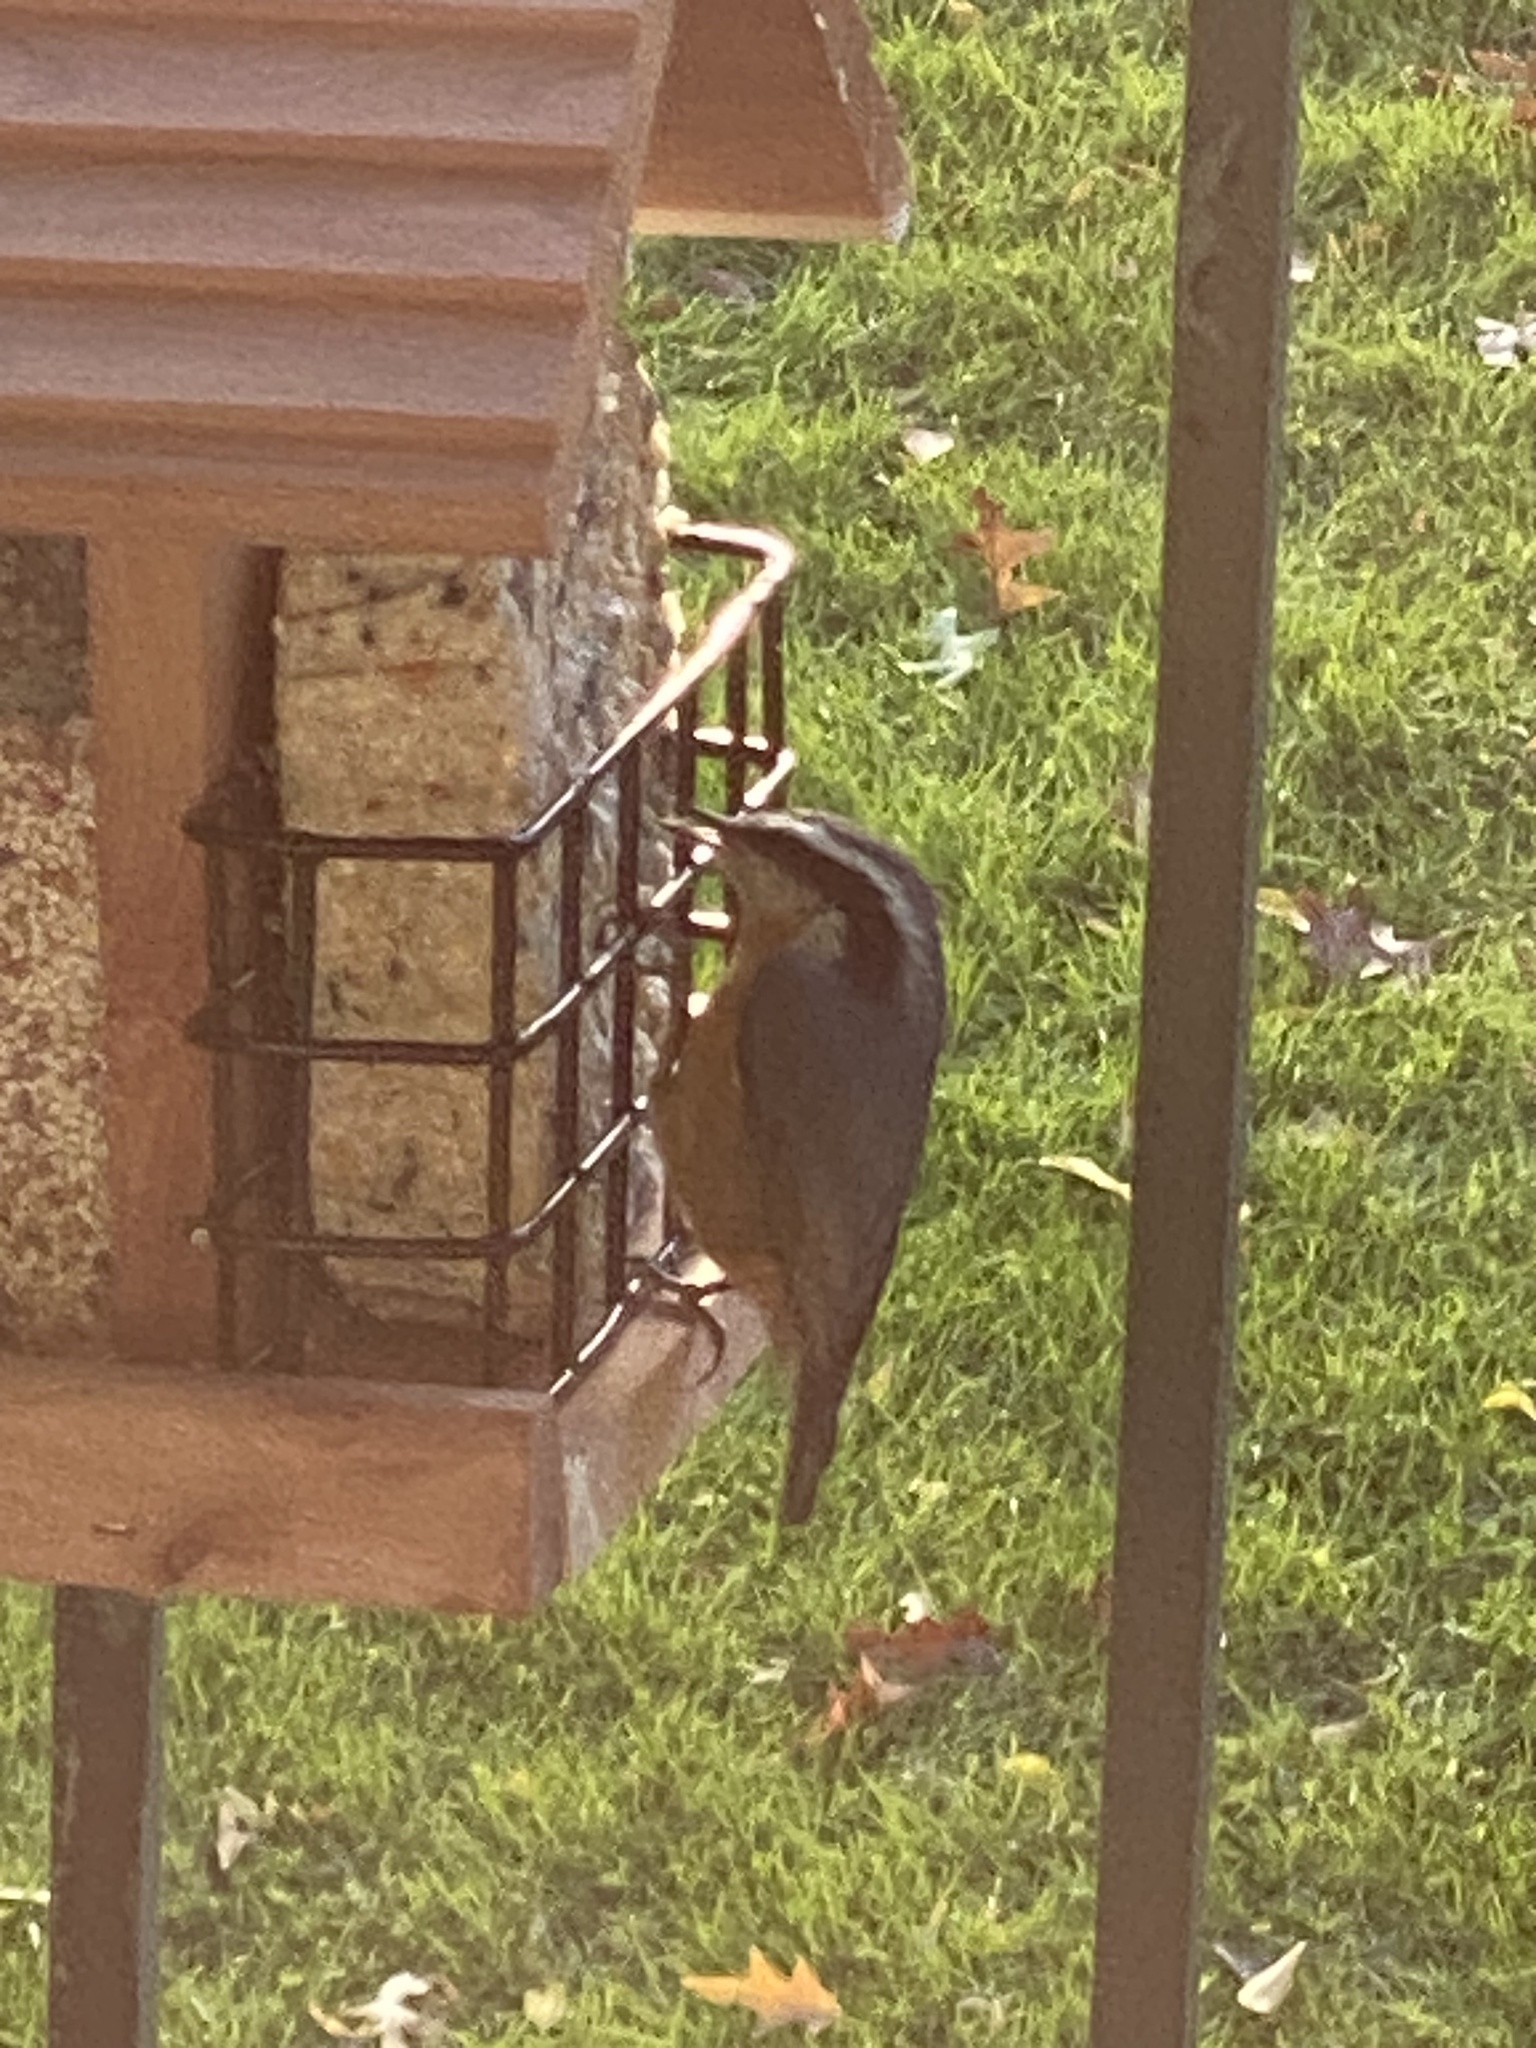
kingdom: Animalia
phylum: Chordata
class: Aves
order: Passeriformes
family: Sittidae
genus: Sitta
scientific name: Sitta canadensis
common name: Red-breasted nuthatch
